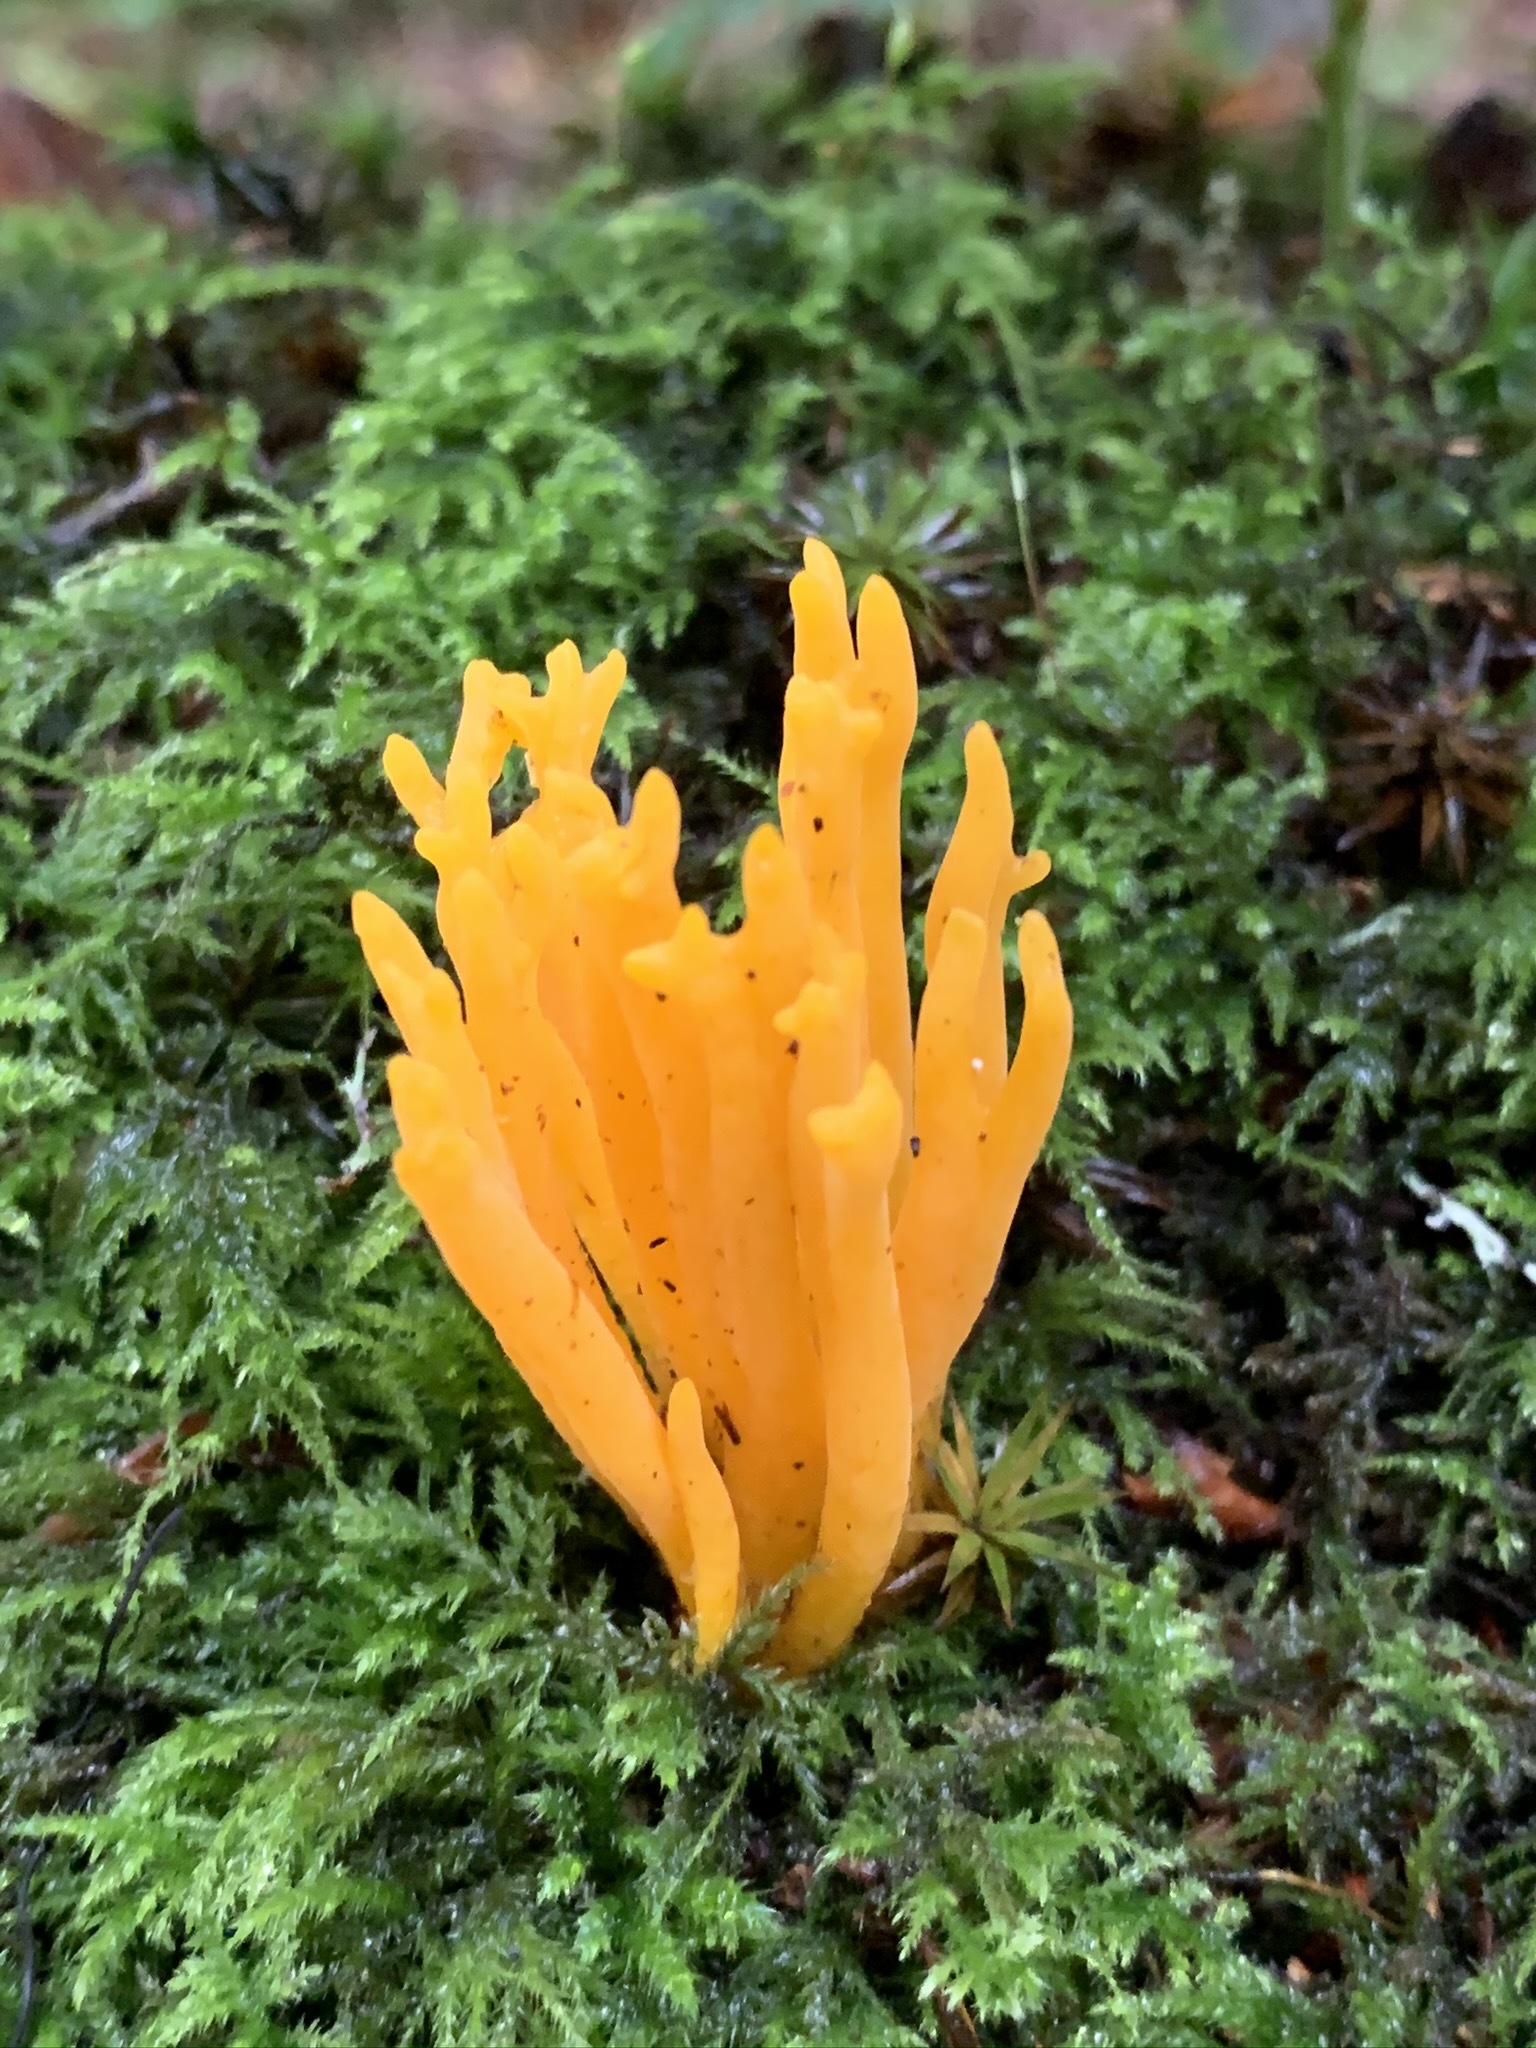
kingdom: Fungi
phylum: Basidiomycota
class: Dacrymycetes
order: Dacrymycetales
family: Dacrymycetaceae
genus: Calocera
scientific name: Calocera viscosa
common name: Yellow stagshorn
